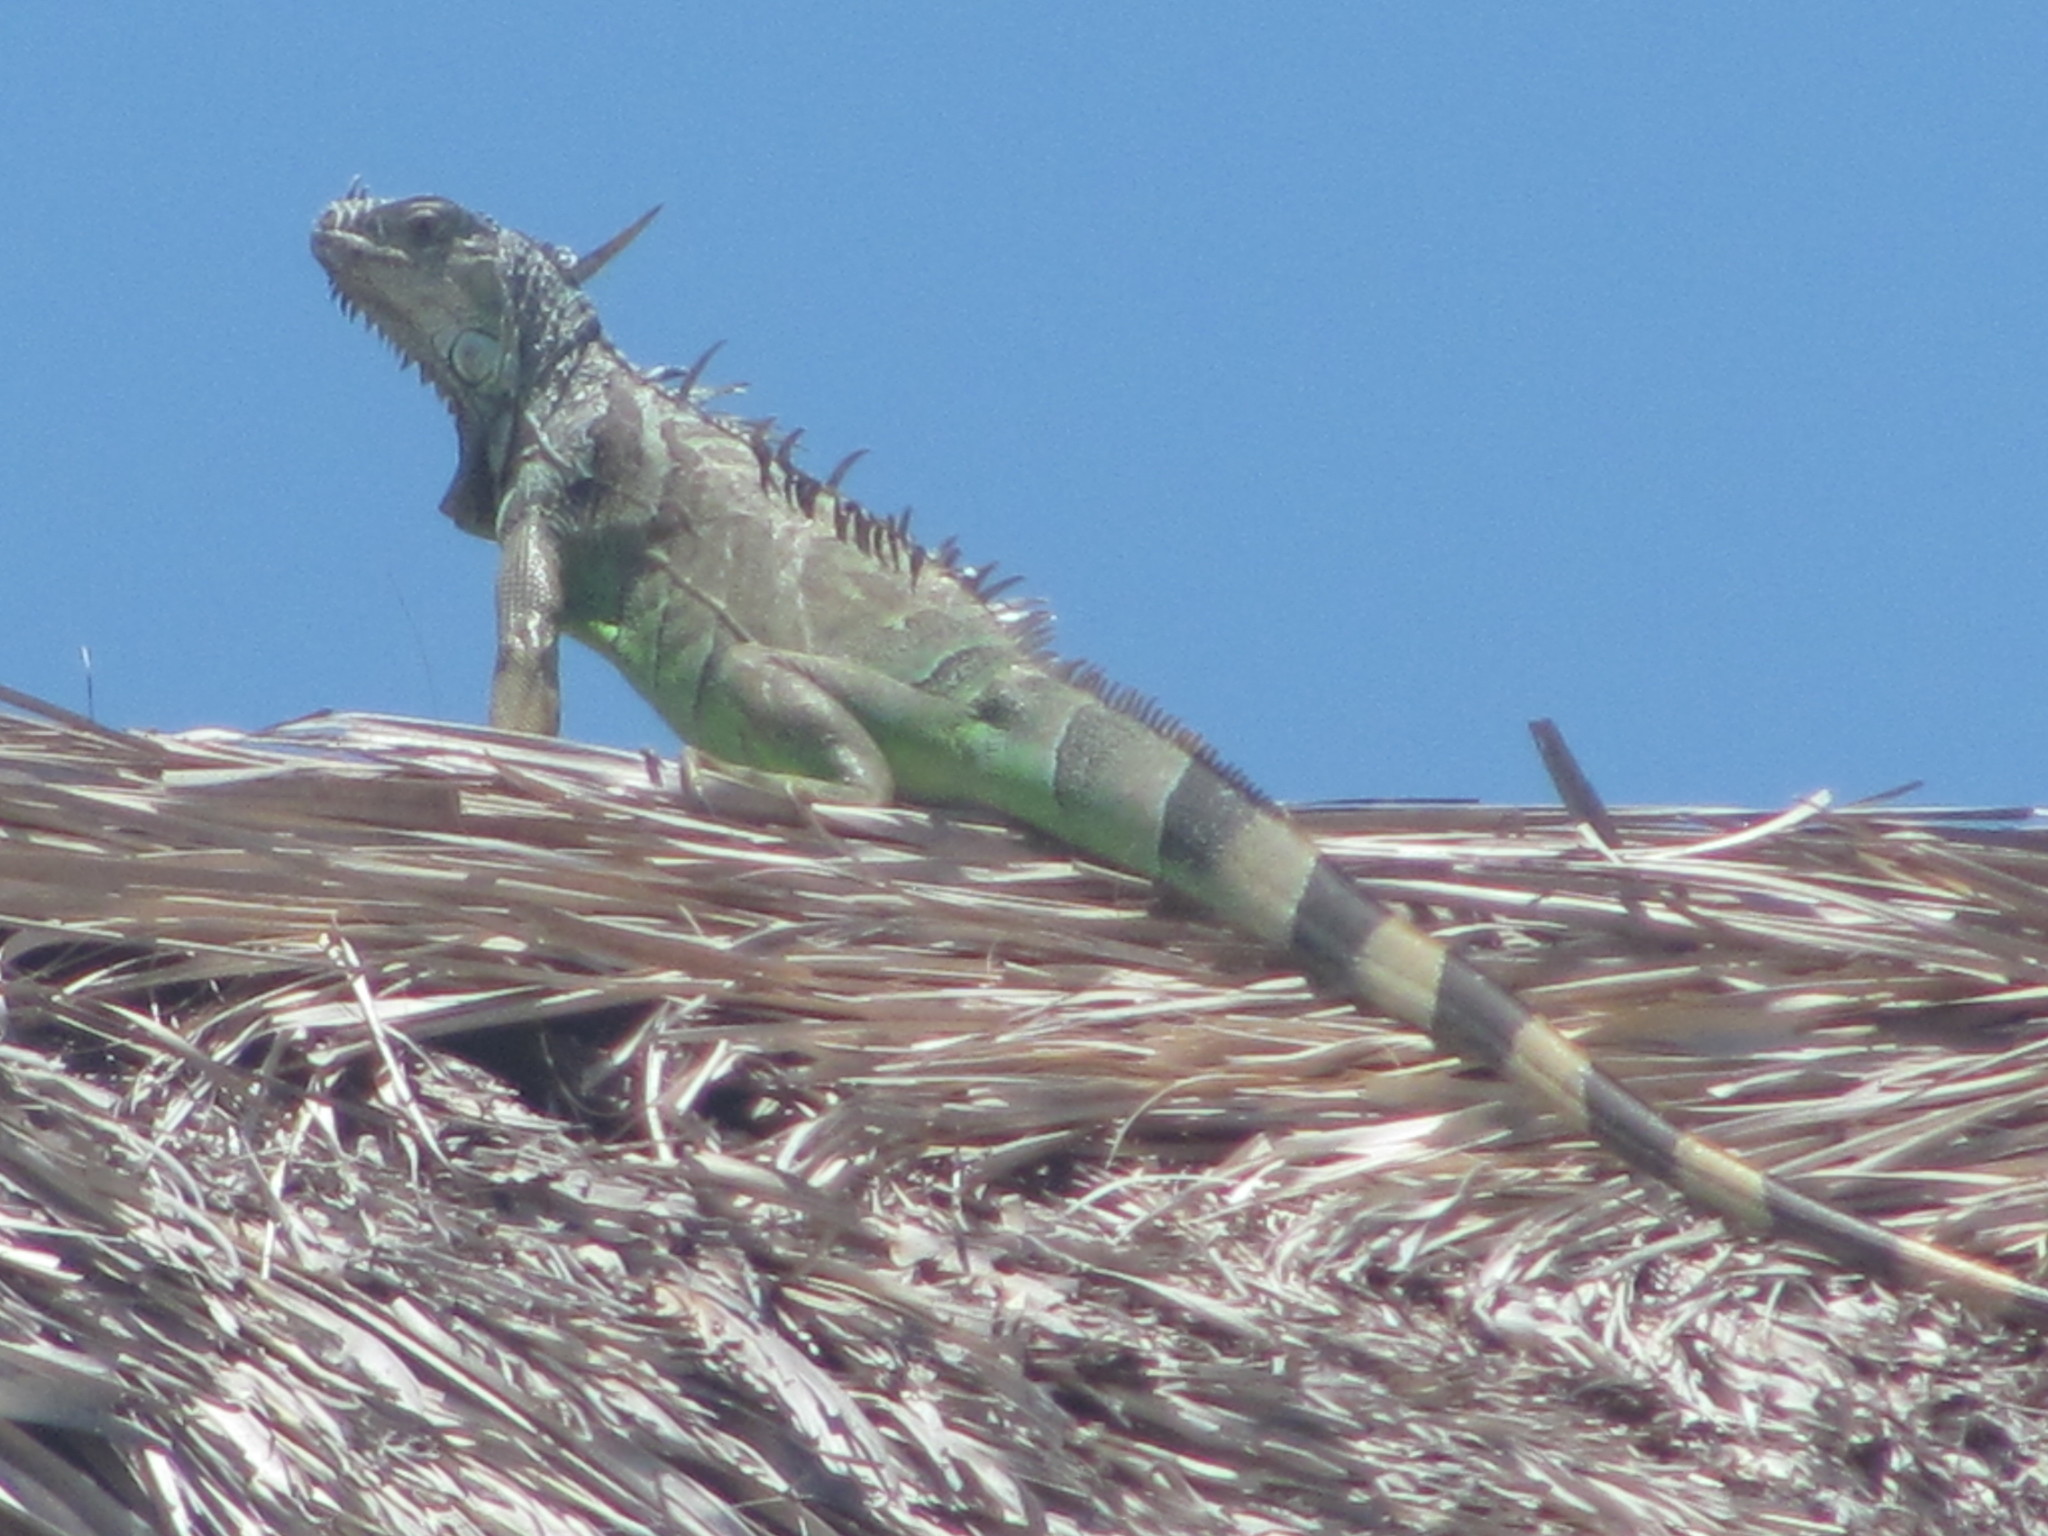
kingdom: Animalia
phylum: Chordata
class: Squamata
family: Iguanidae
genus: Iguana
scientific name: Iguana iguana
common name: Green iguana
